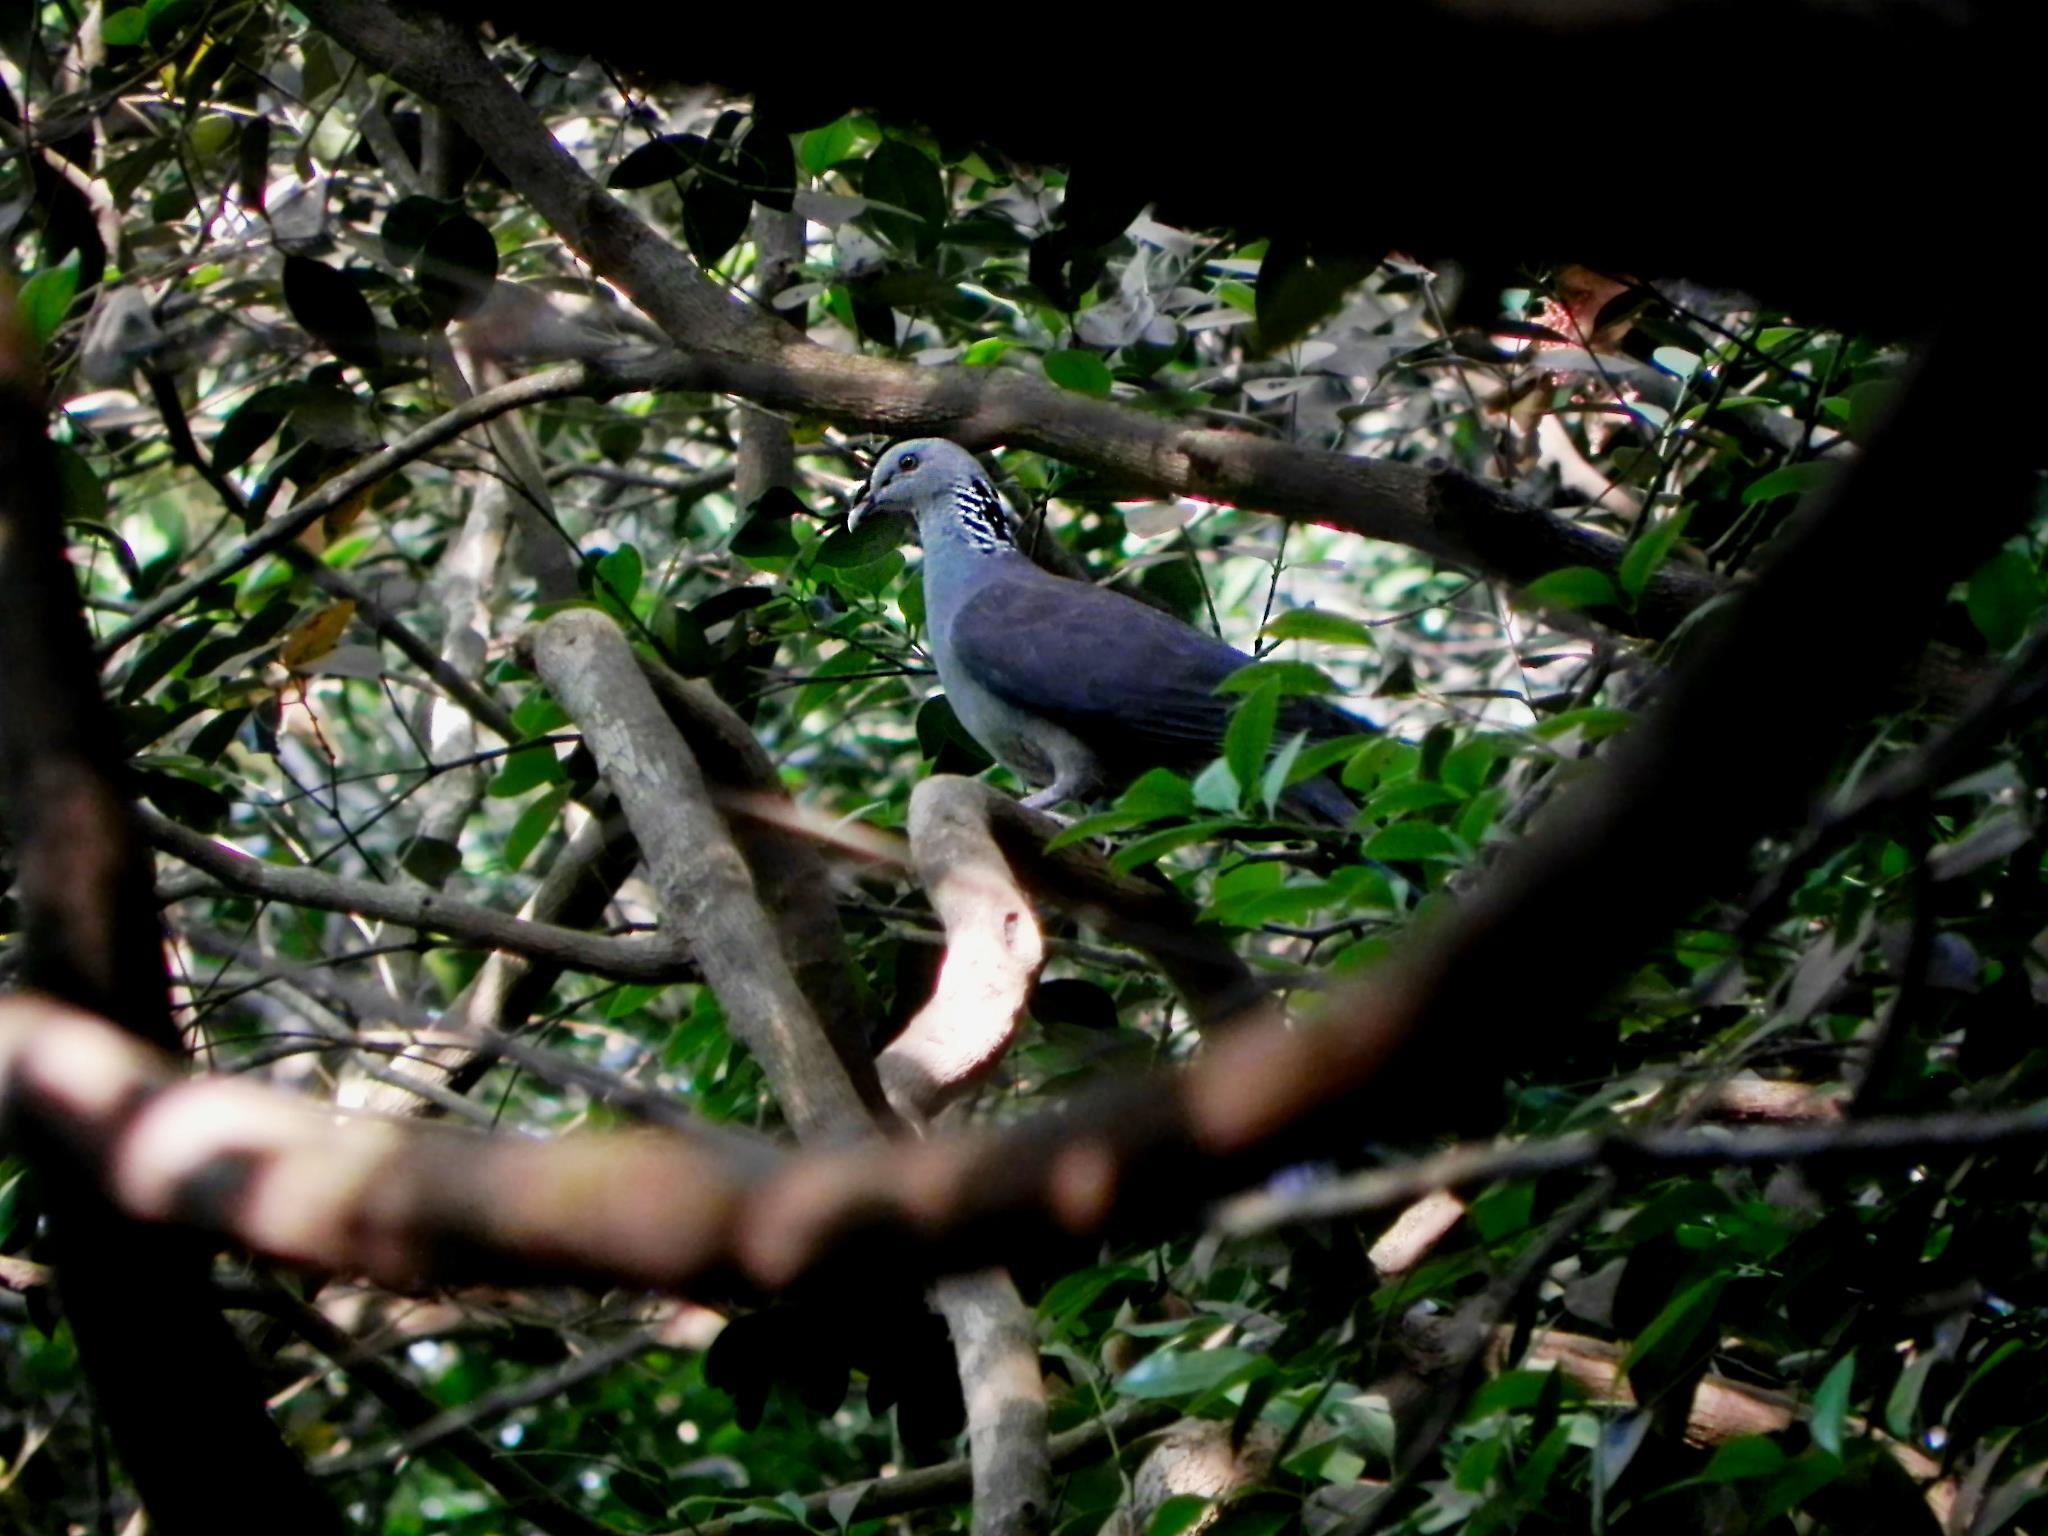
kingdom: Animalia
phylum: Chordata
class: Aves
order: Columbiformes
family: Columbidae
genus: Columba
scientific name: Columba elphinstonii
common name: Nilgiri wood pigeon
